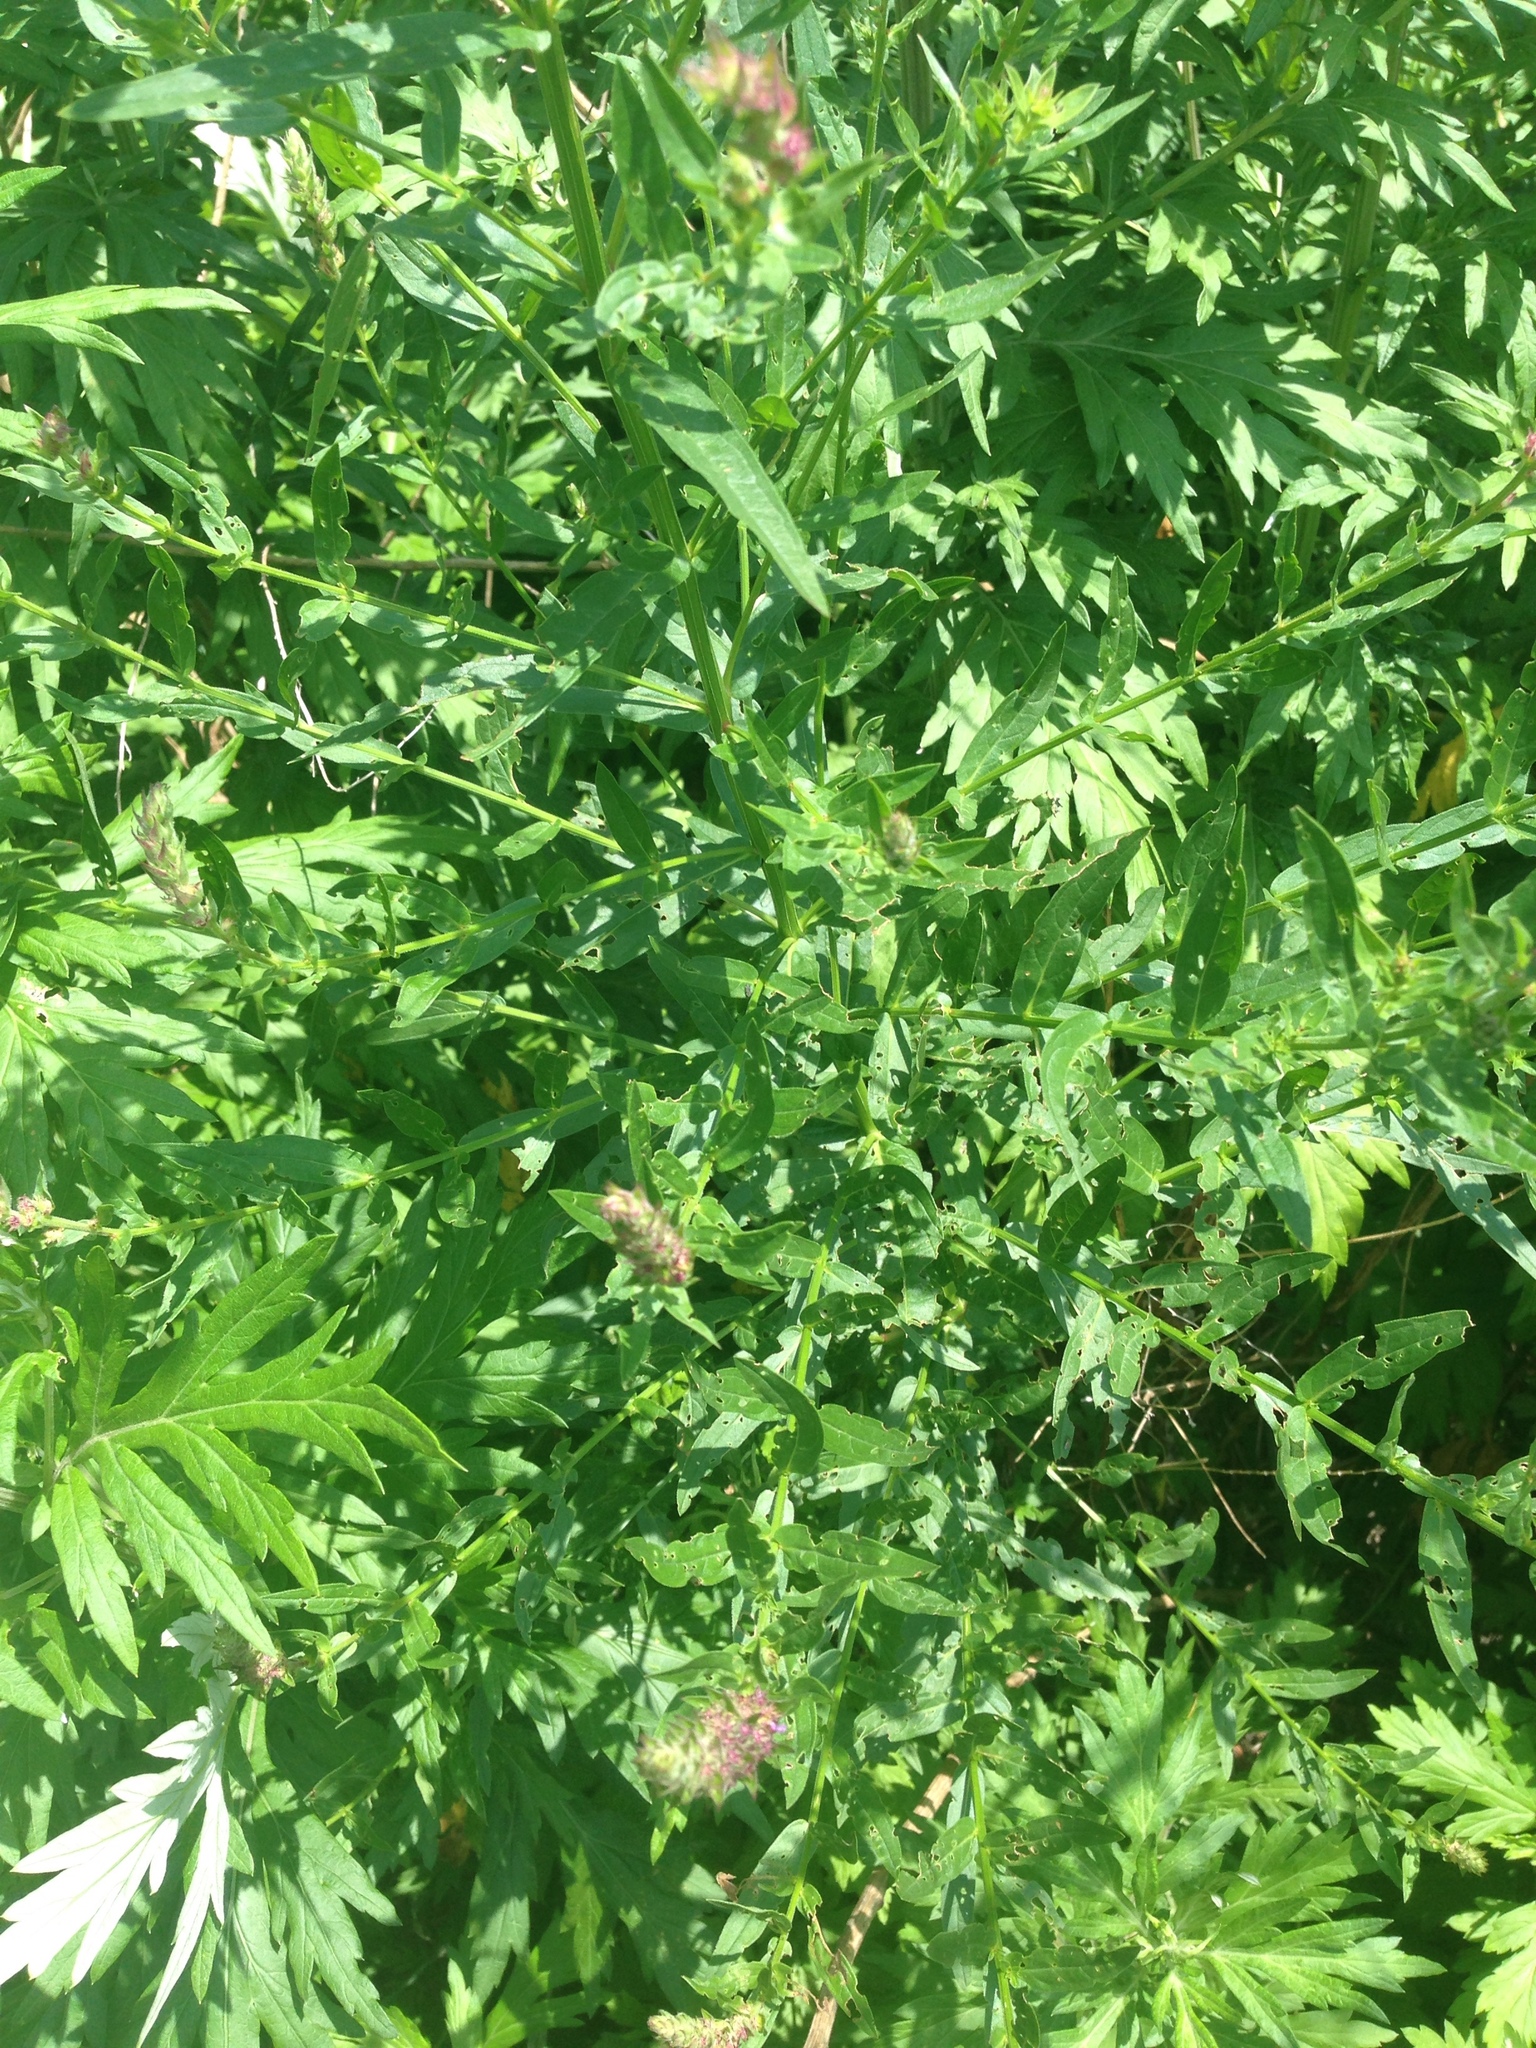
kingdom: Plantae
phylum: Tracheophyta
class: Magnoliopsida
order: Myrtales
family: Lythraceae
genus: Lythrum
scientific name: Lythrum salicaria
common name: Purple loosestrife
